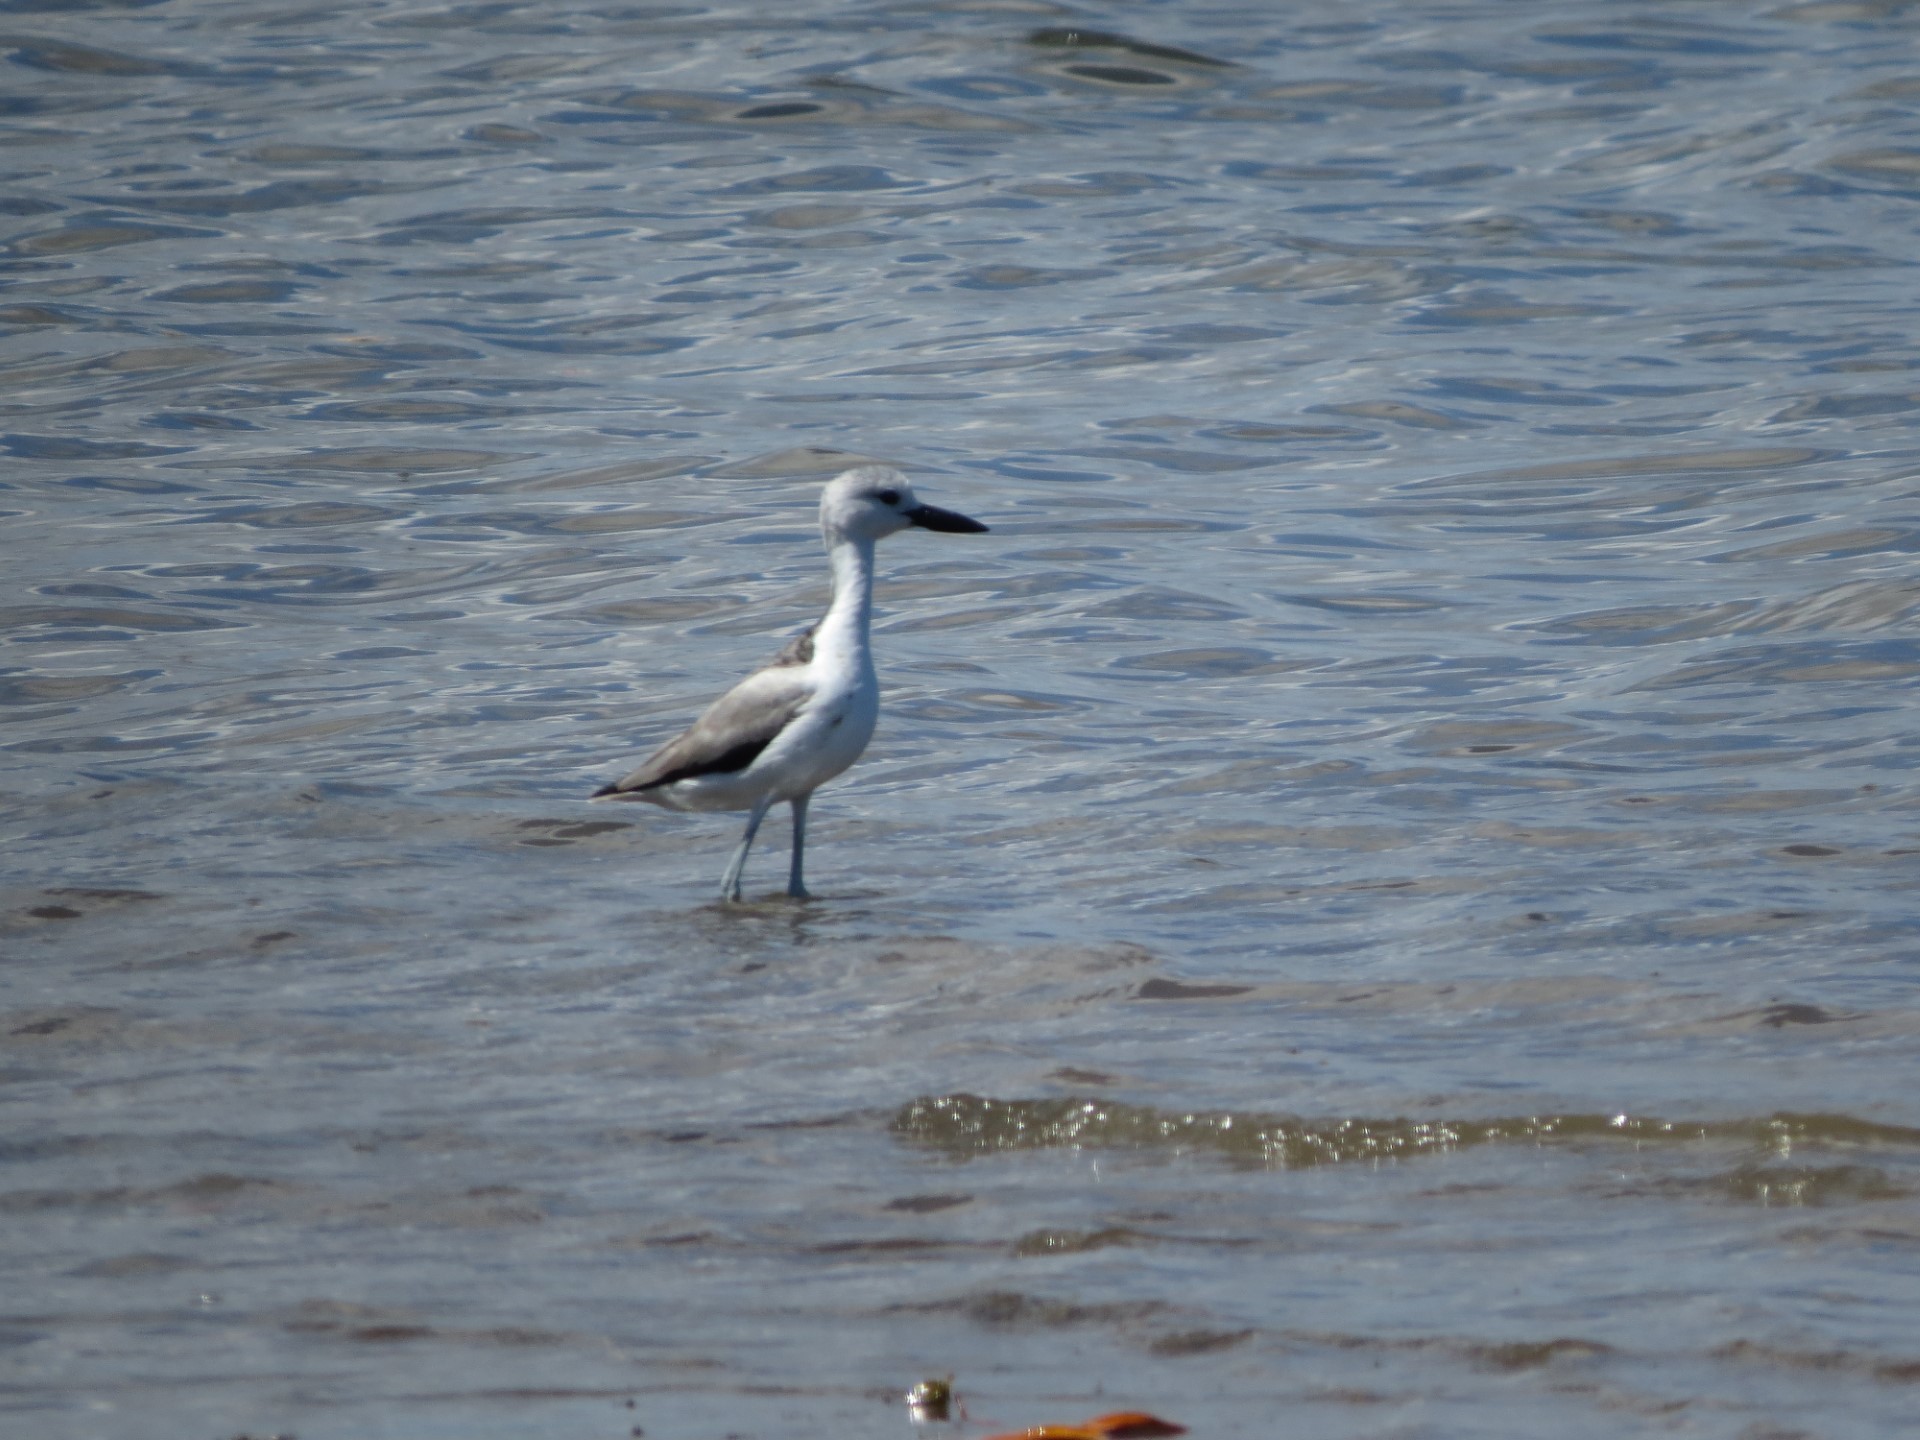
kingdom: Animalia
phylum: Chordata
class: Aves
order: Charadriiformes
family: Dromadidae
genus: Dromas
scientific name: Dromas ardeola
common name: Crab-plover
